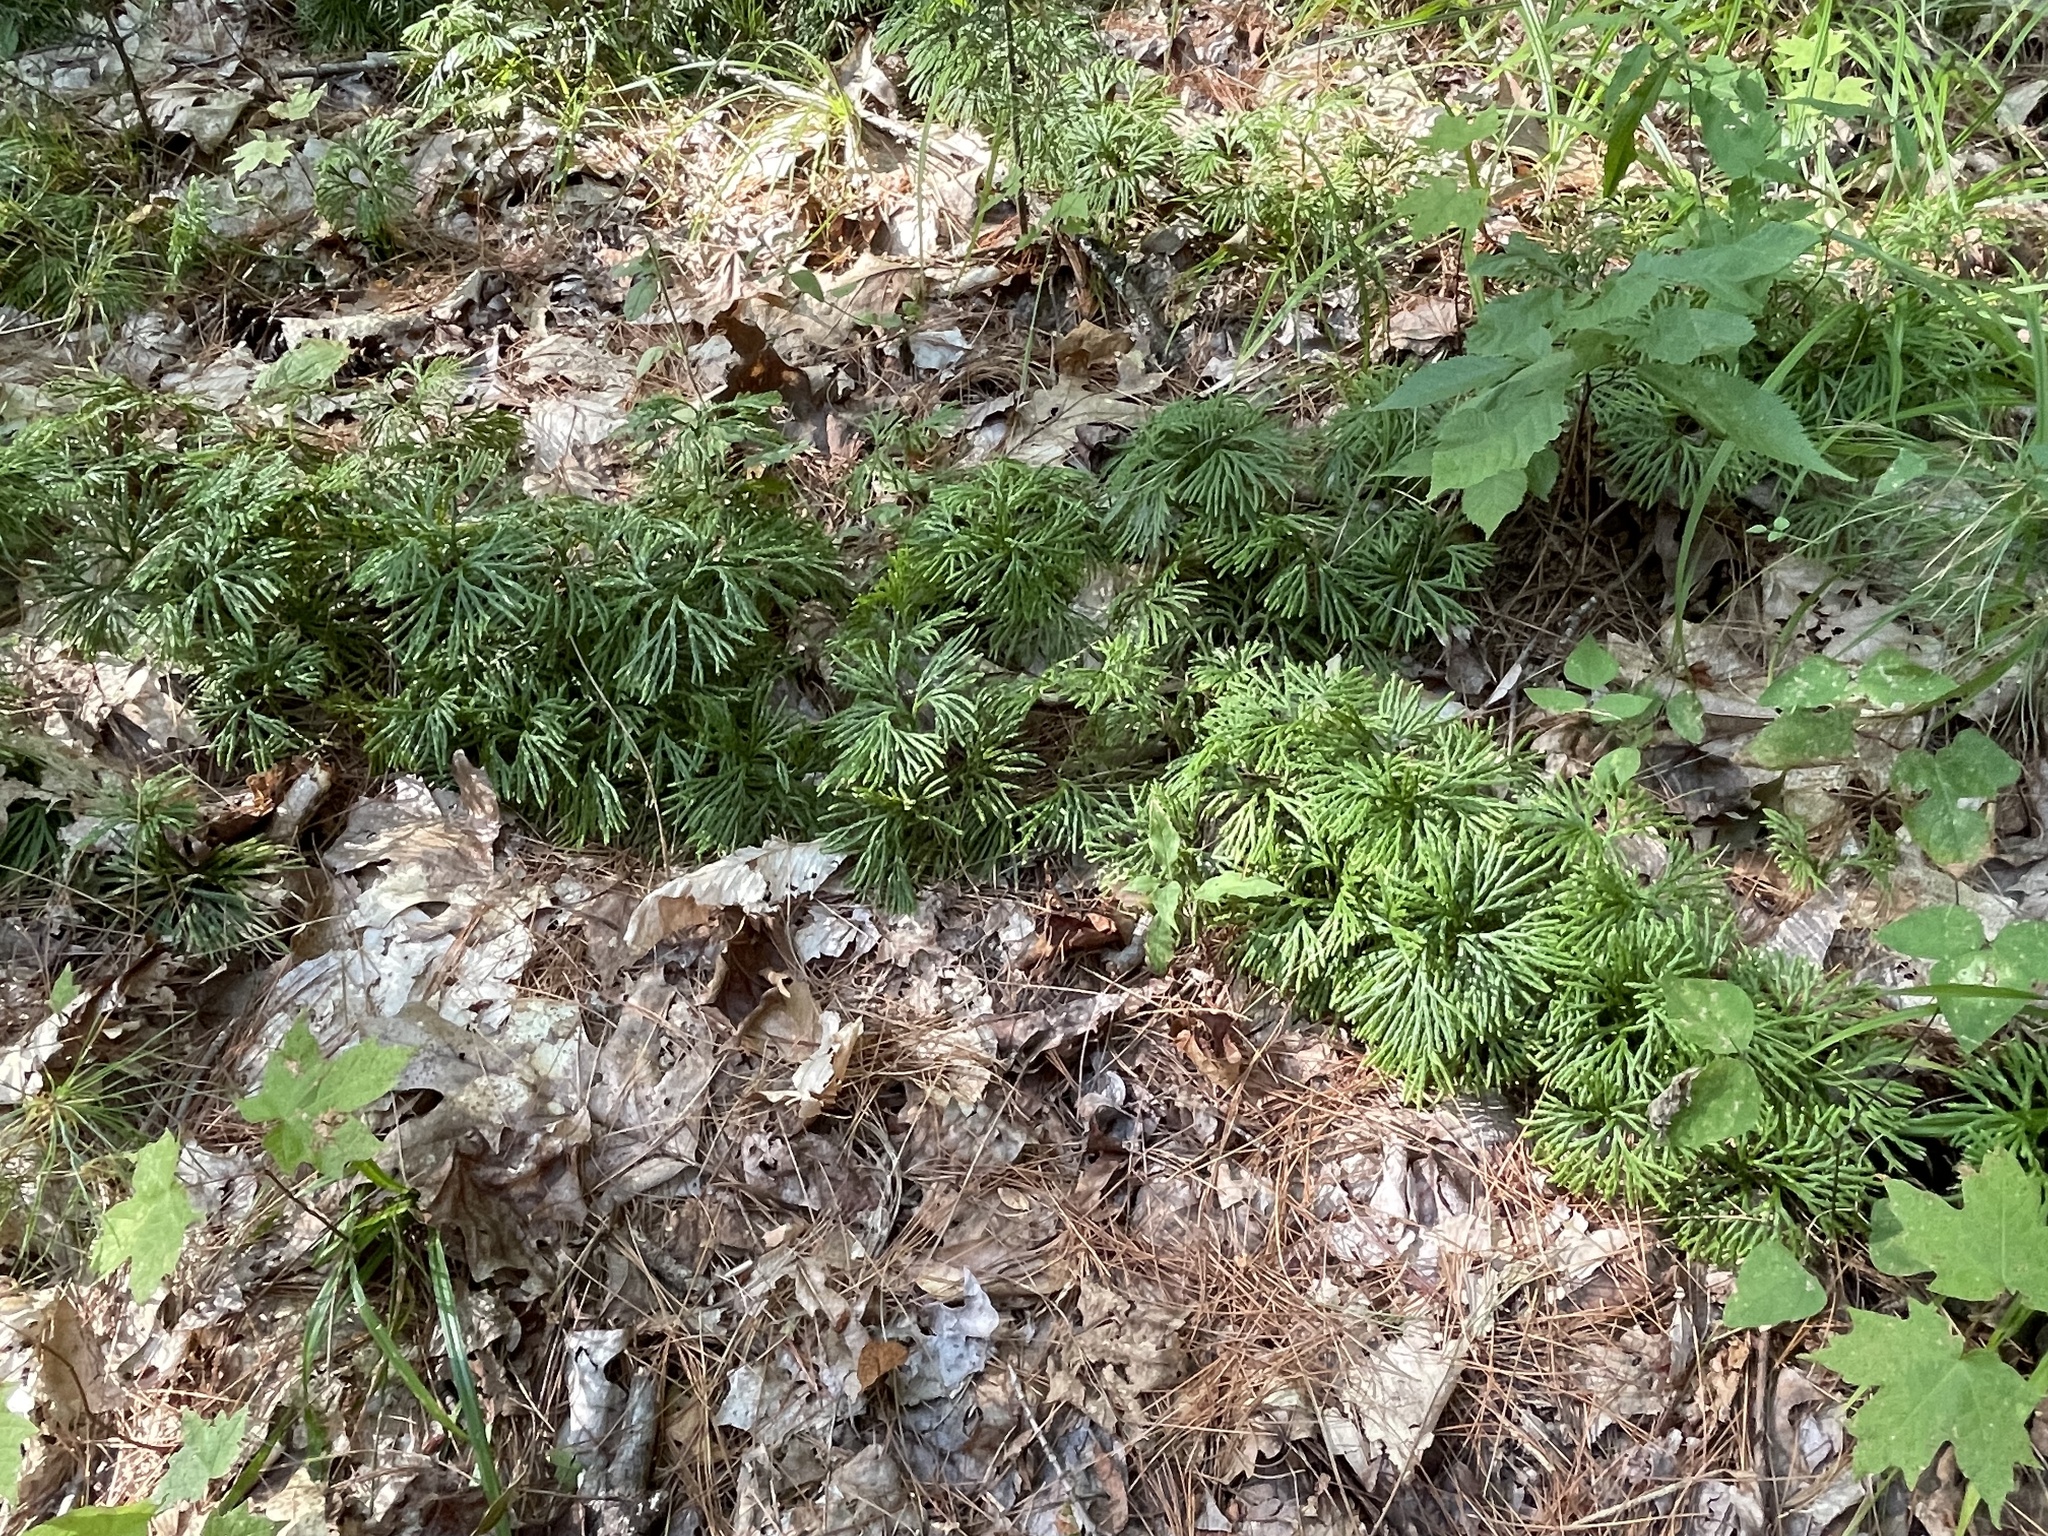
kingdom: Plantae
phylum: Tracheophyta
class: Lycopodiopsida
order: Lycopodiales
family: Lycopodiaceae
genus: Diphasiastrum
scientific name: Diphasiastrum digitatum
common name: Southern running-pine
